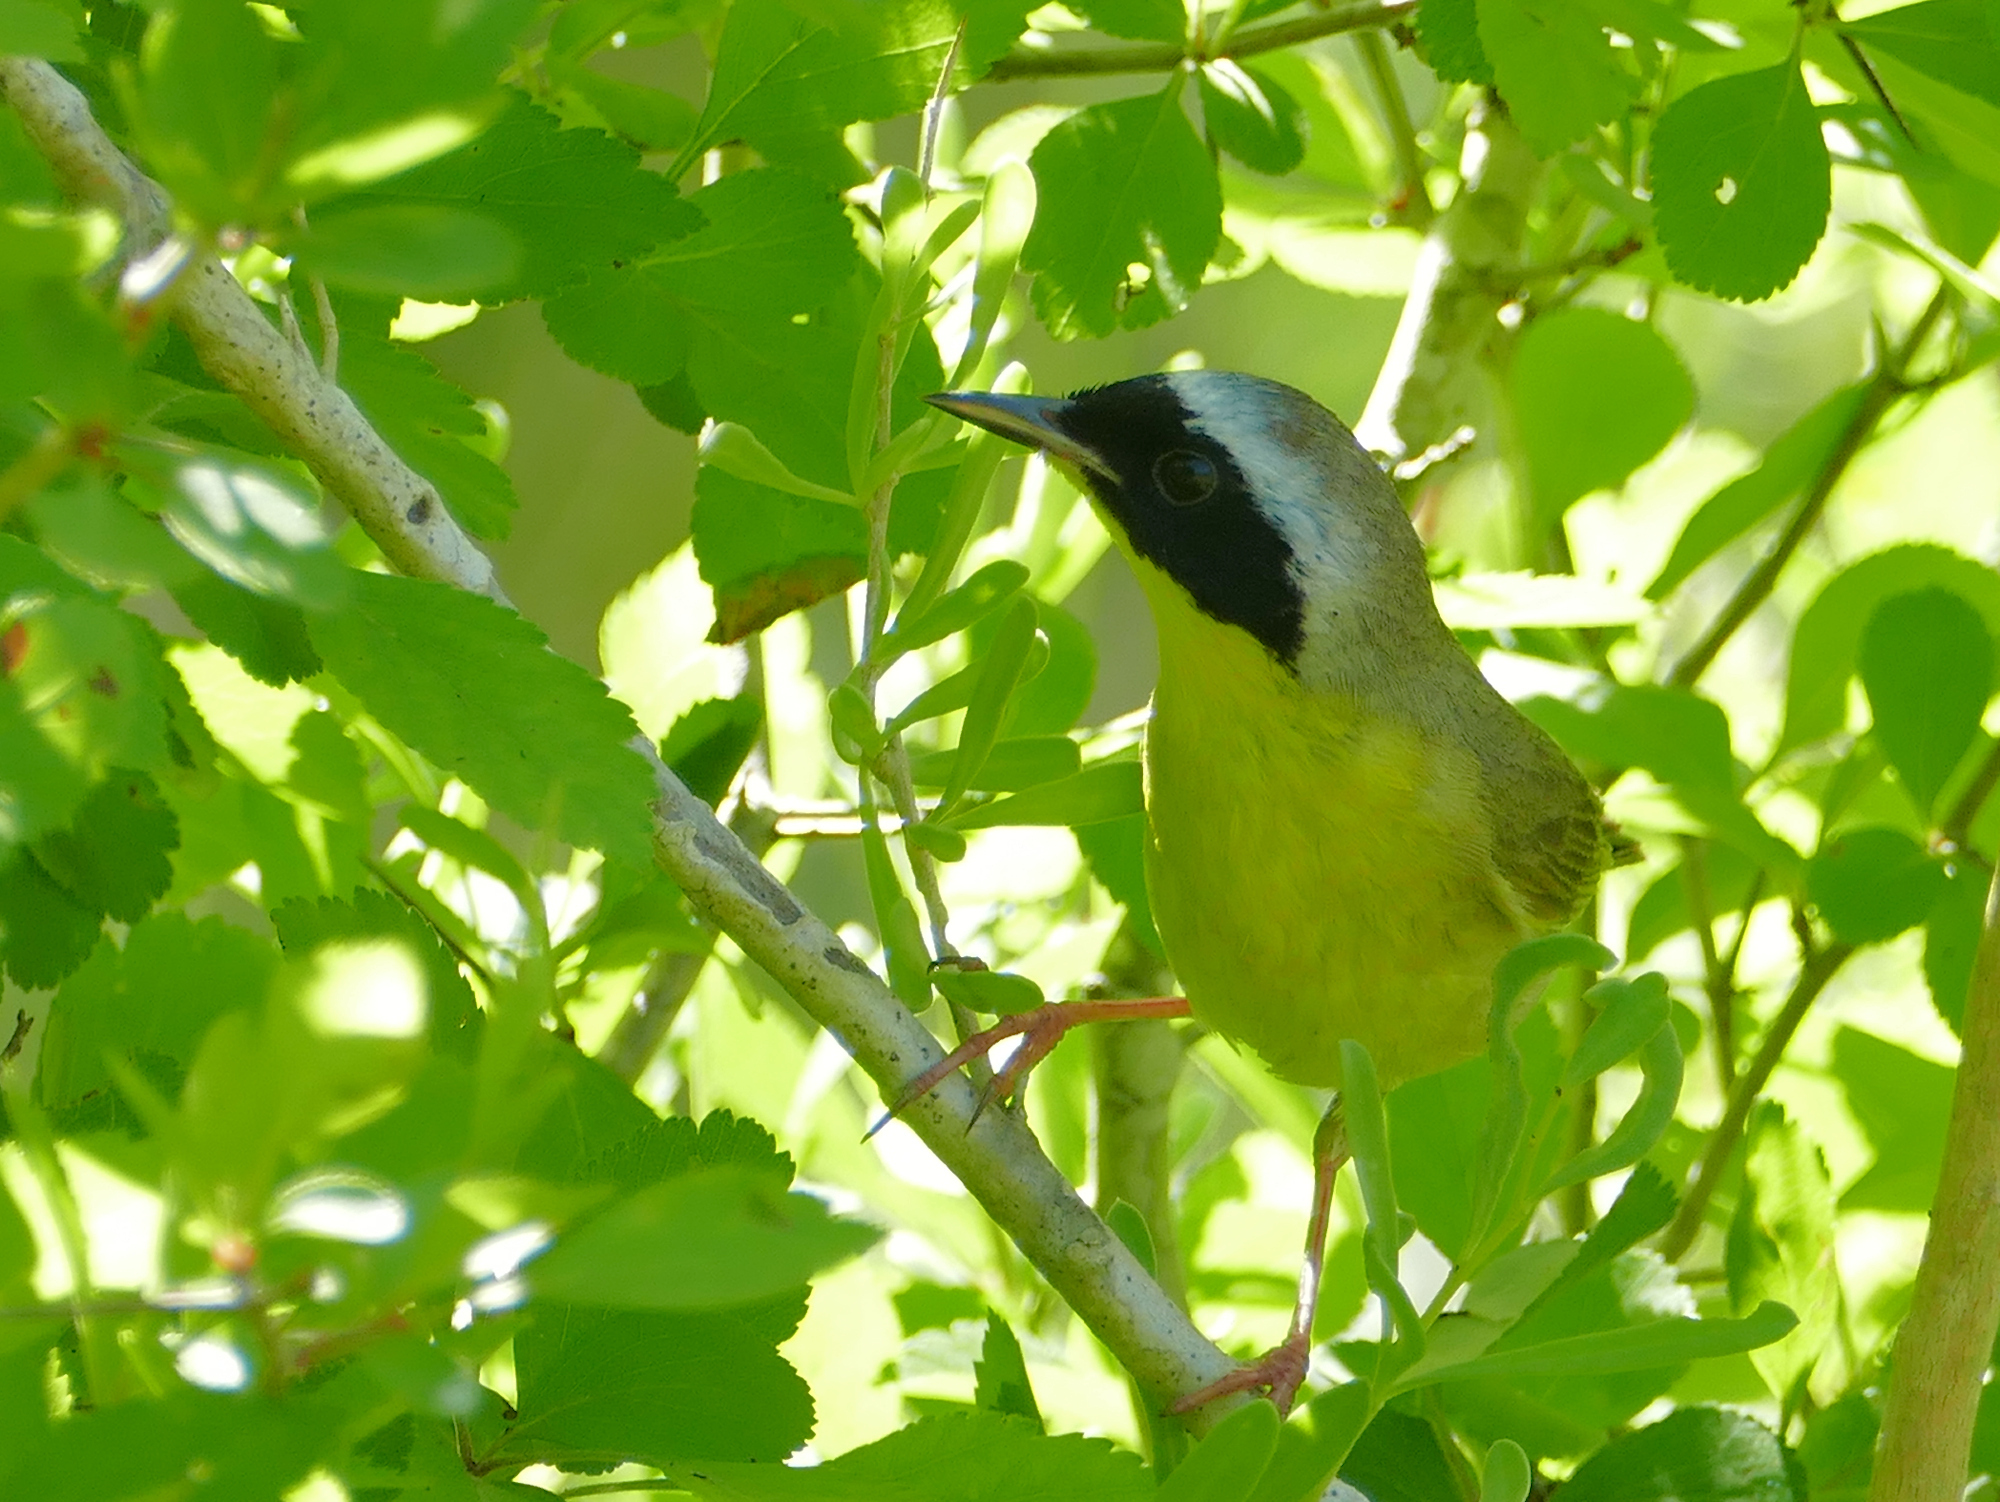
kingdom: Animalia
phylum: Chordata
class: Aves
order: Passeriformes
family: Parulidae
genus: Geothlypis
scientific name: Geothlypis trichas
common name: Common yellowthroat
